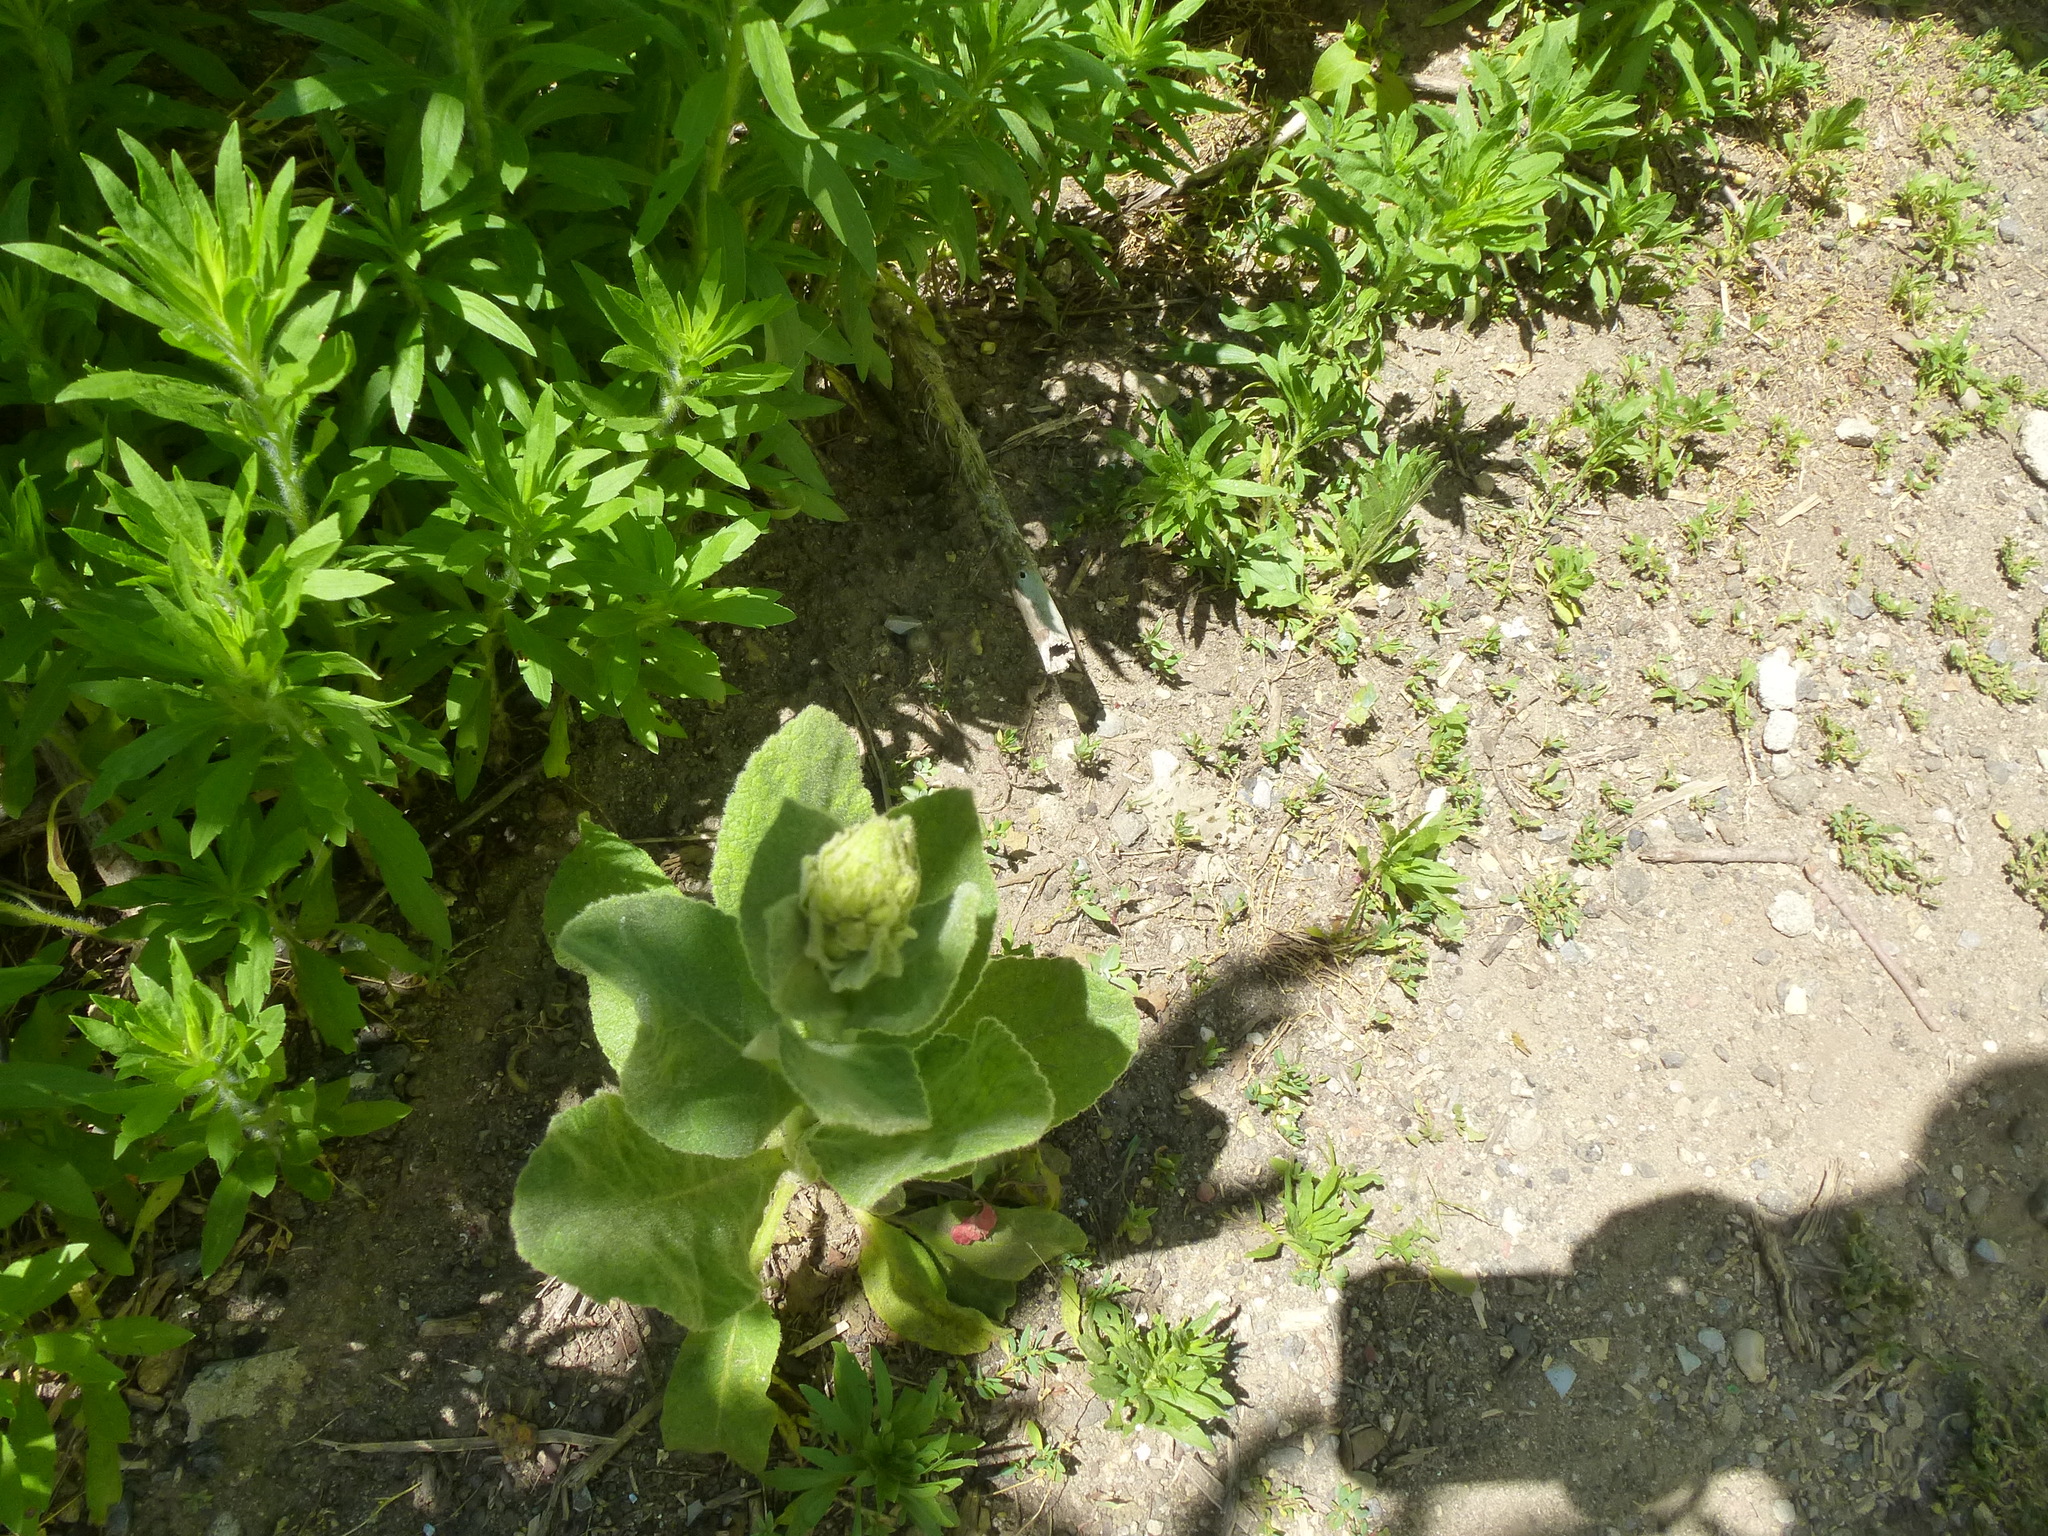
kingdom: Plantae
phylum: Tracheophyta
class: Magnoliopsida
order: Lamiales
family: Scrophulariaceae
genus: Verbascum
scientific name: Verbascum thapsus
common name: Common mullein
